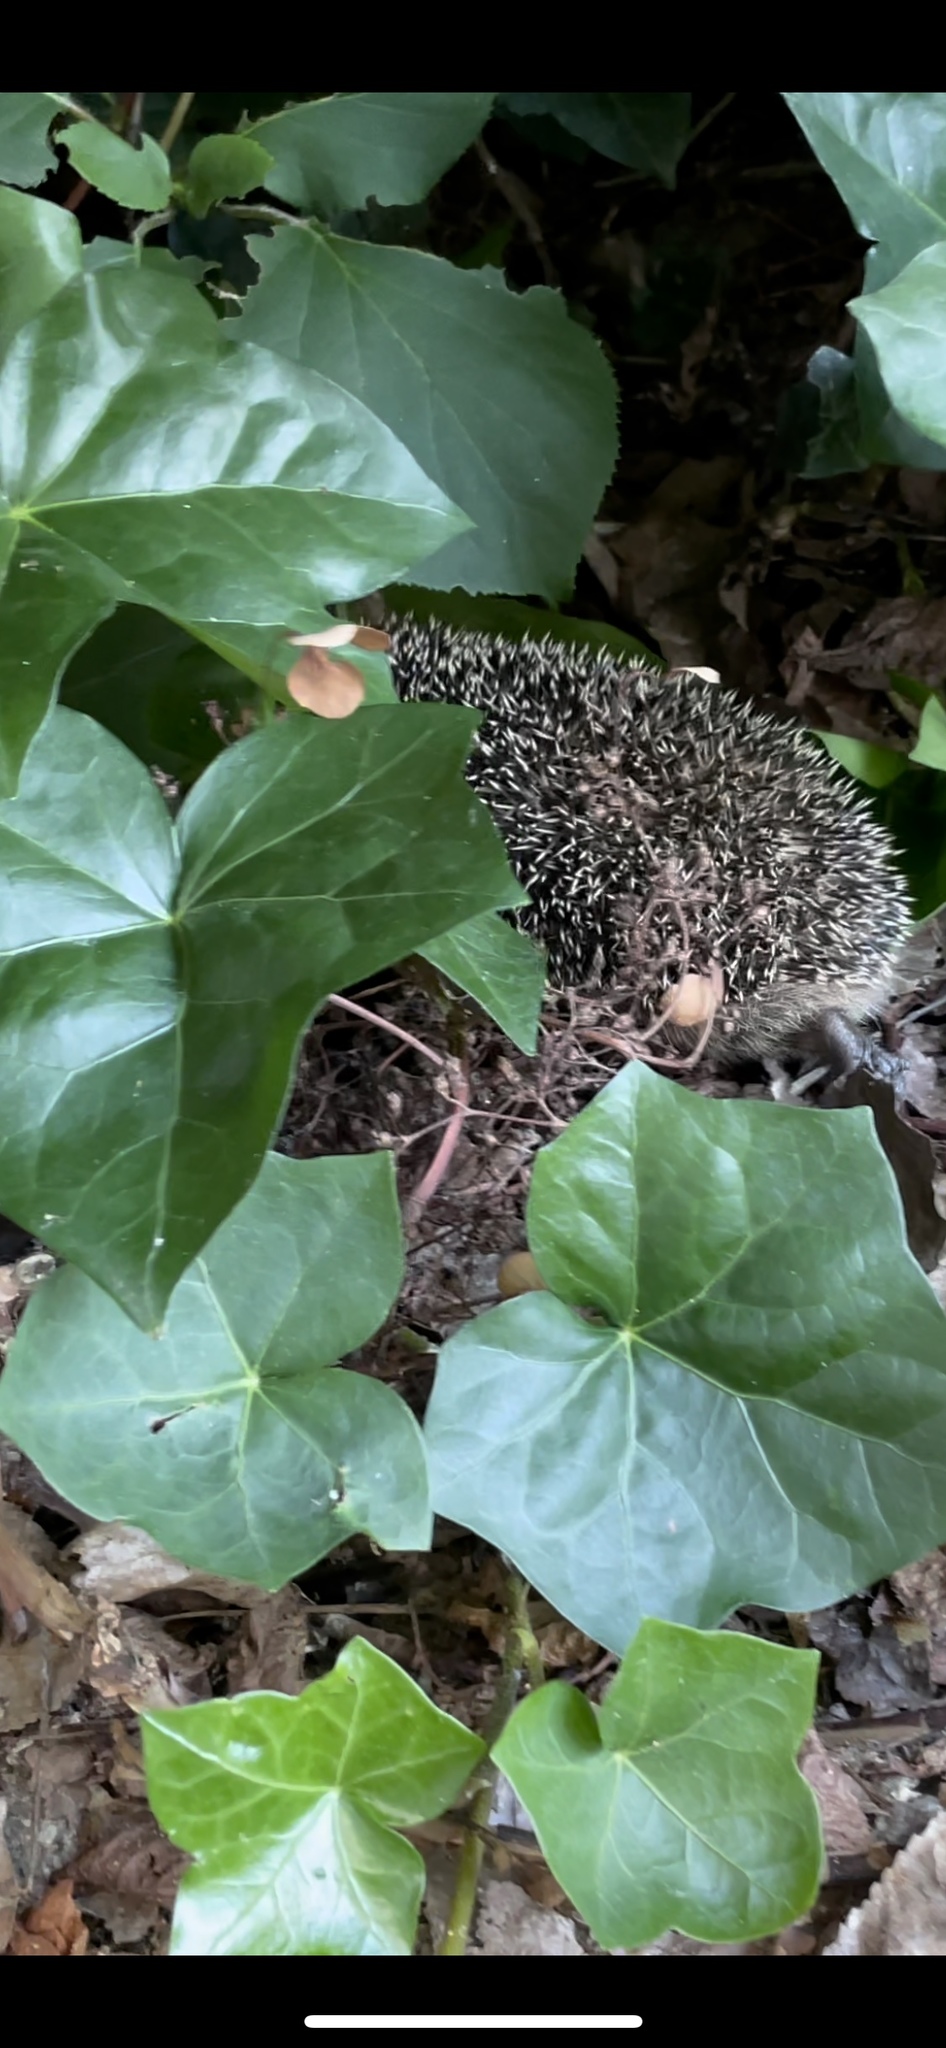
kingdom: Animalia
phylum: Chordata
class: Mammalia
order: Erinaceomorpha
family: Erinaceidae
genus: Erinaceus
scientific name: Erinaceus europaeus
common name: West european hedgehog
